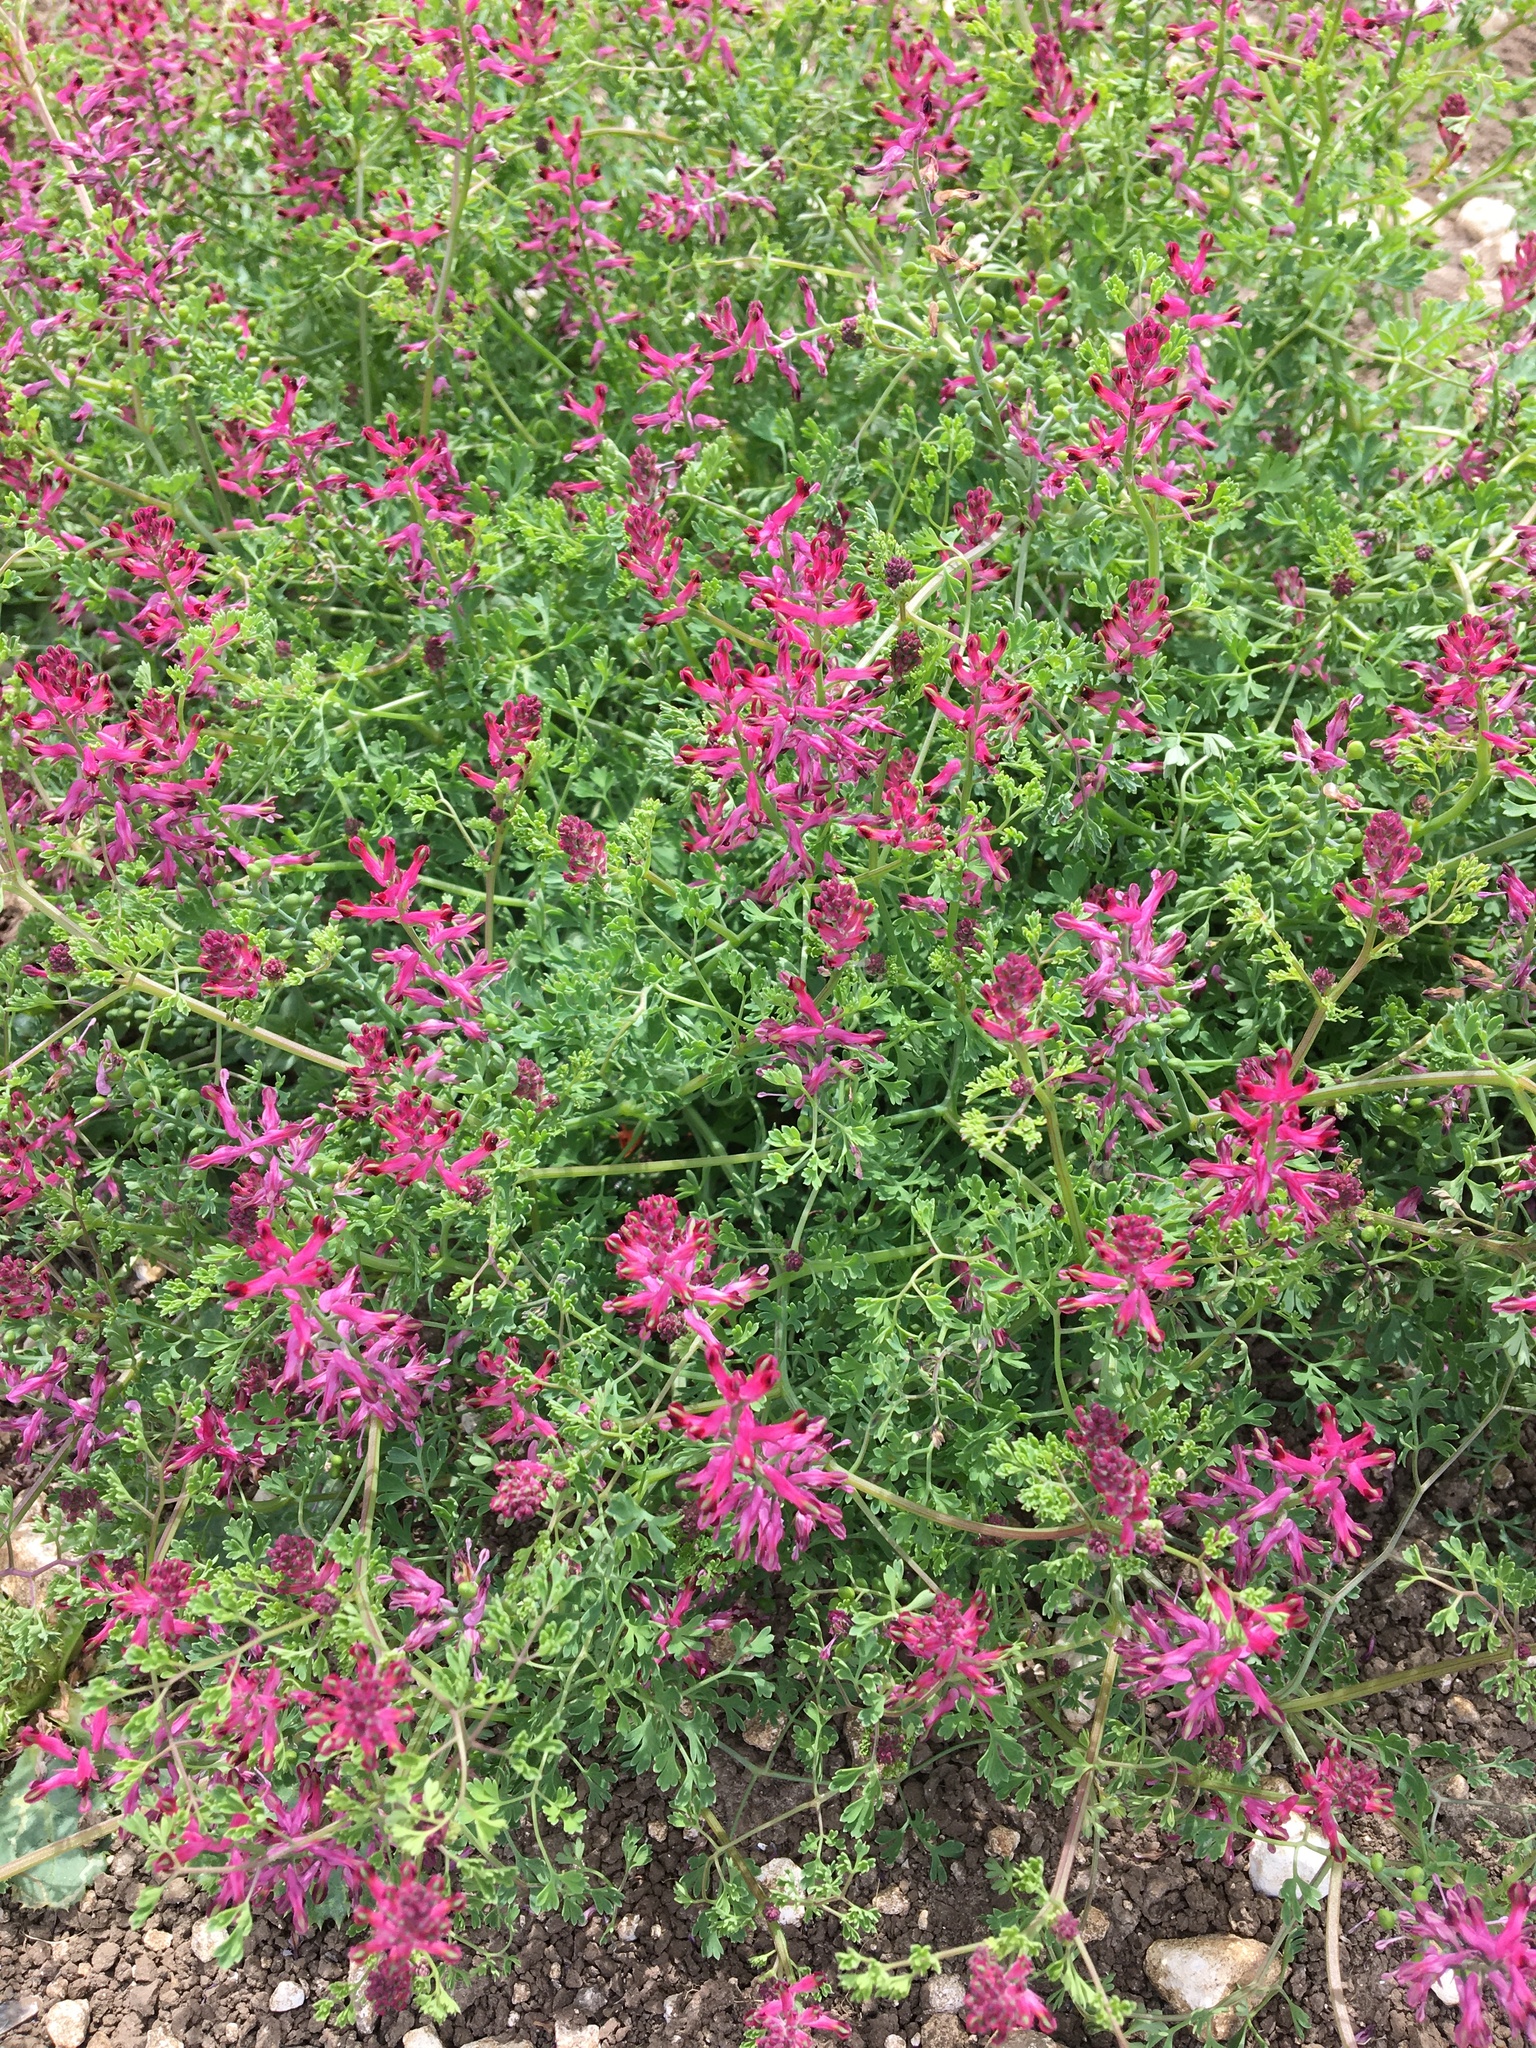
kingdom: Plantae
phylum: Tracheophyta
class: Magnoliopsida
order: Ranunculales
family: Papaveraceae
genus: Fumaria
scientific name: Fumaria officinalis
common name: Common fumitory
